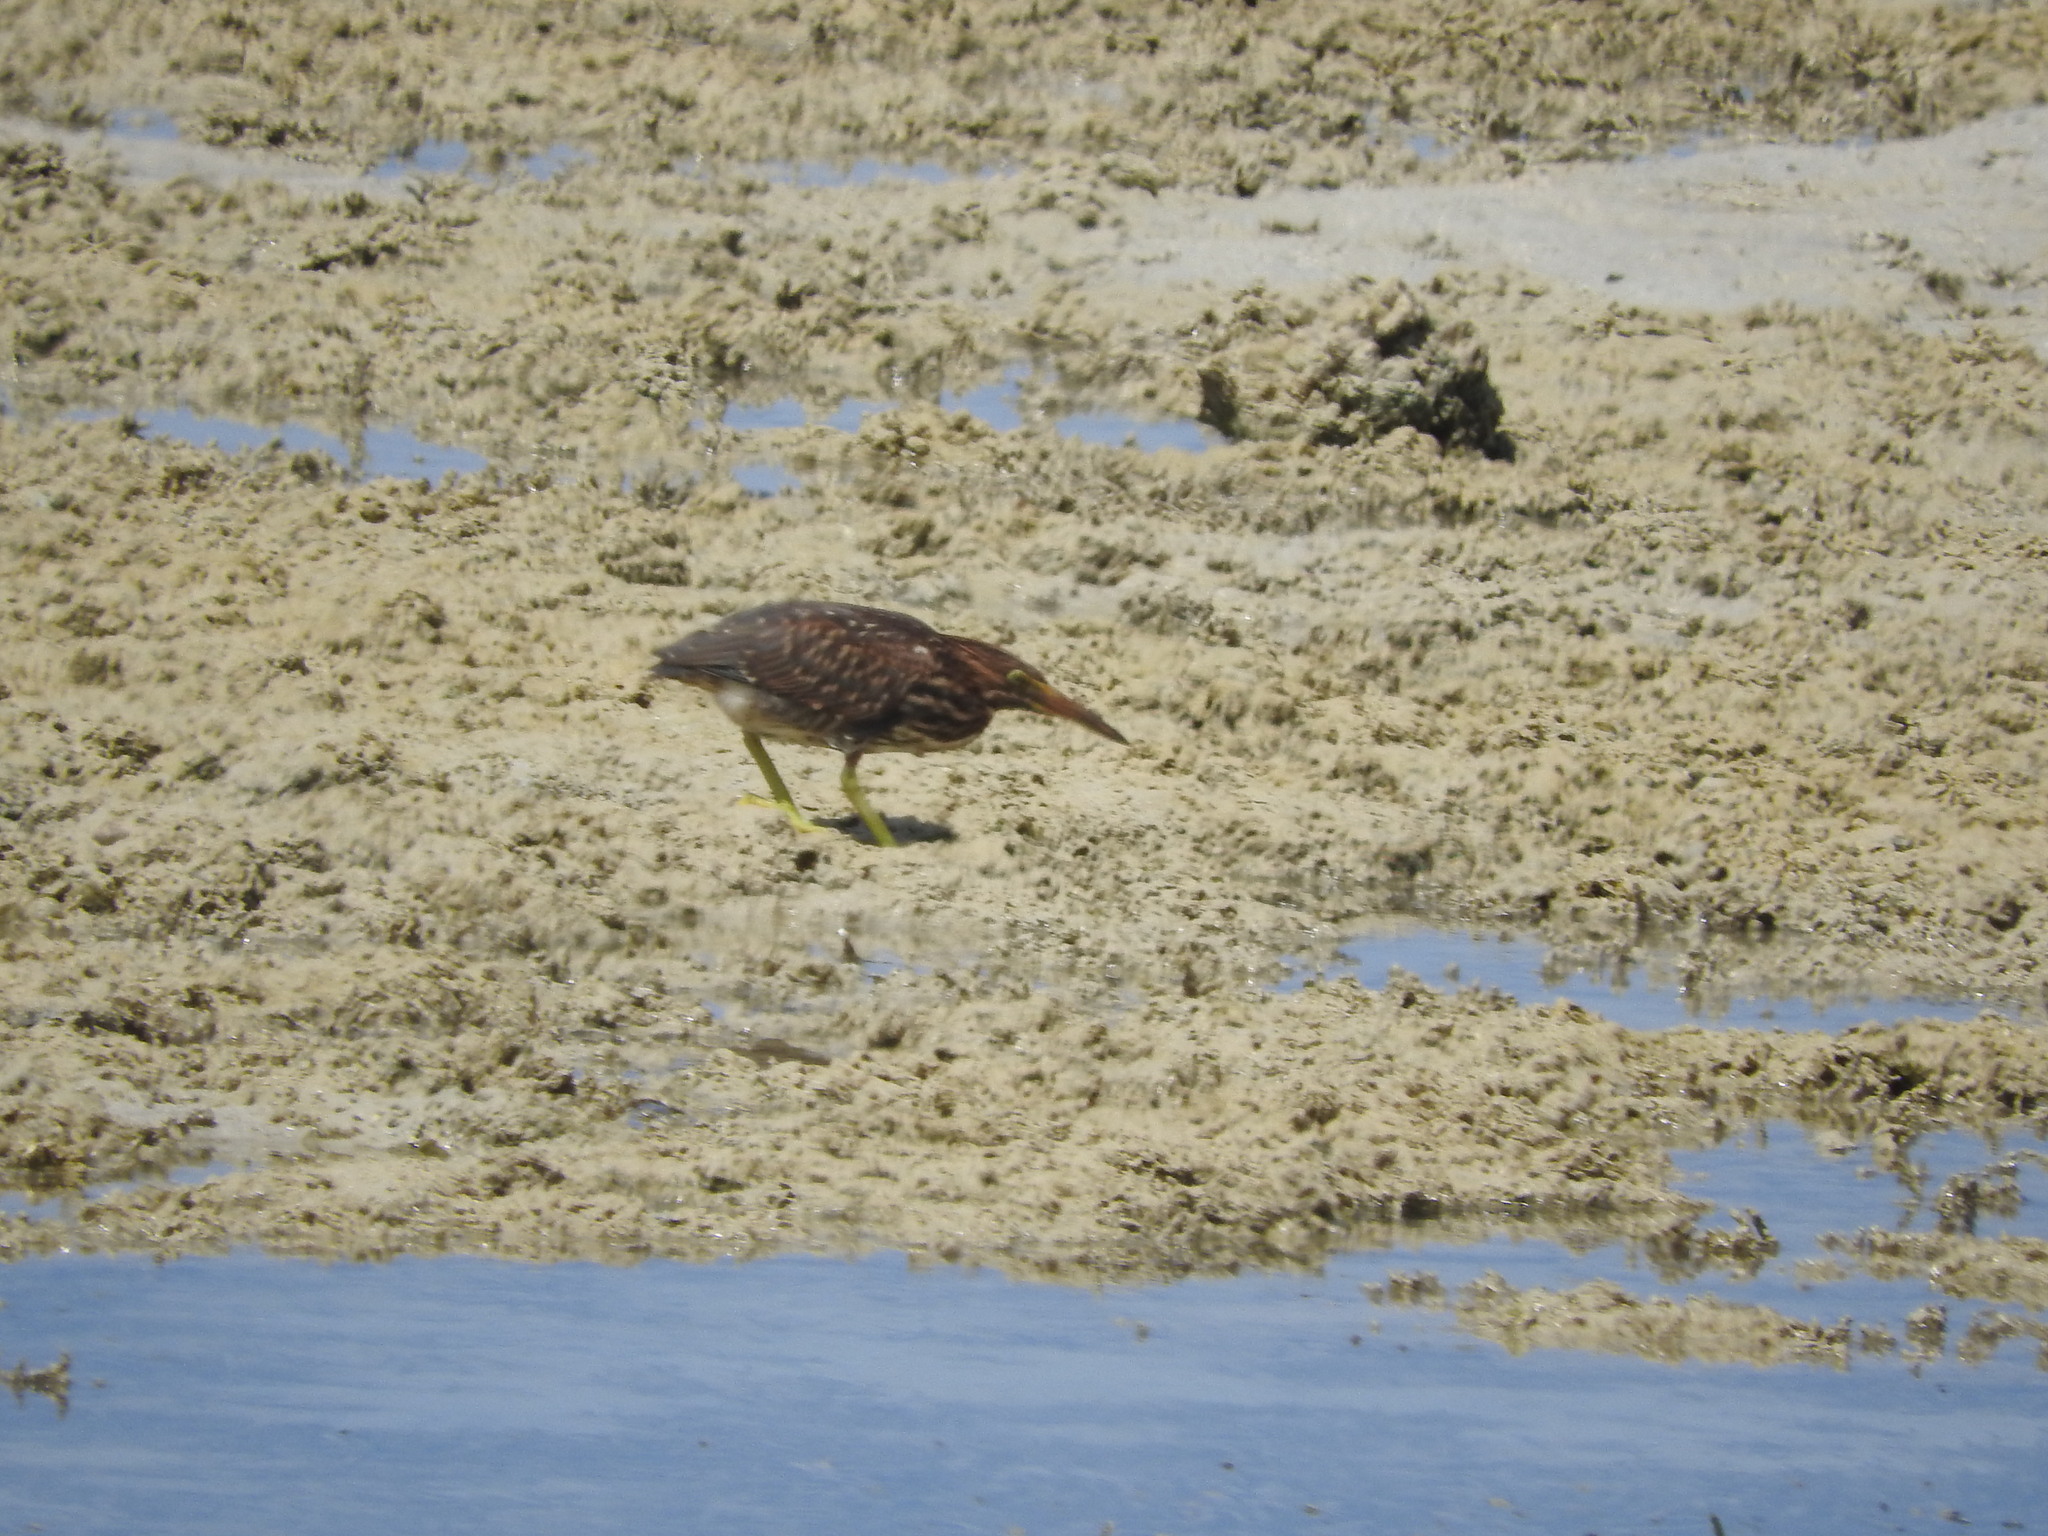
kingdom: Animalia
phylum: Chordata
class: Aves
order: Pelecaniformes
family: Ardeidae
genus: Butorides
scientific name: Butorides striata
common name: Striated heron
